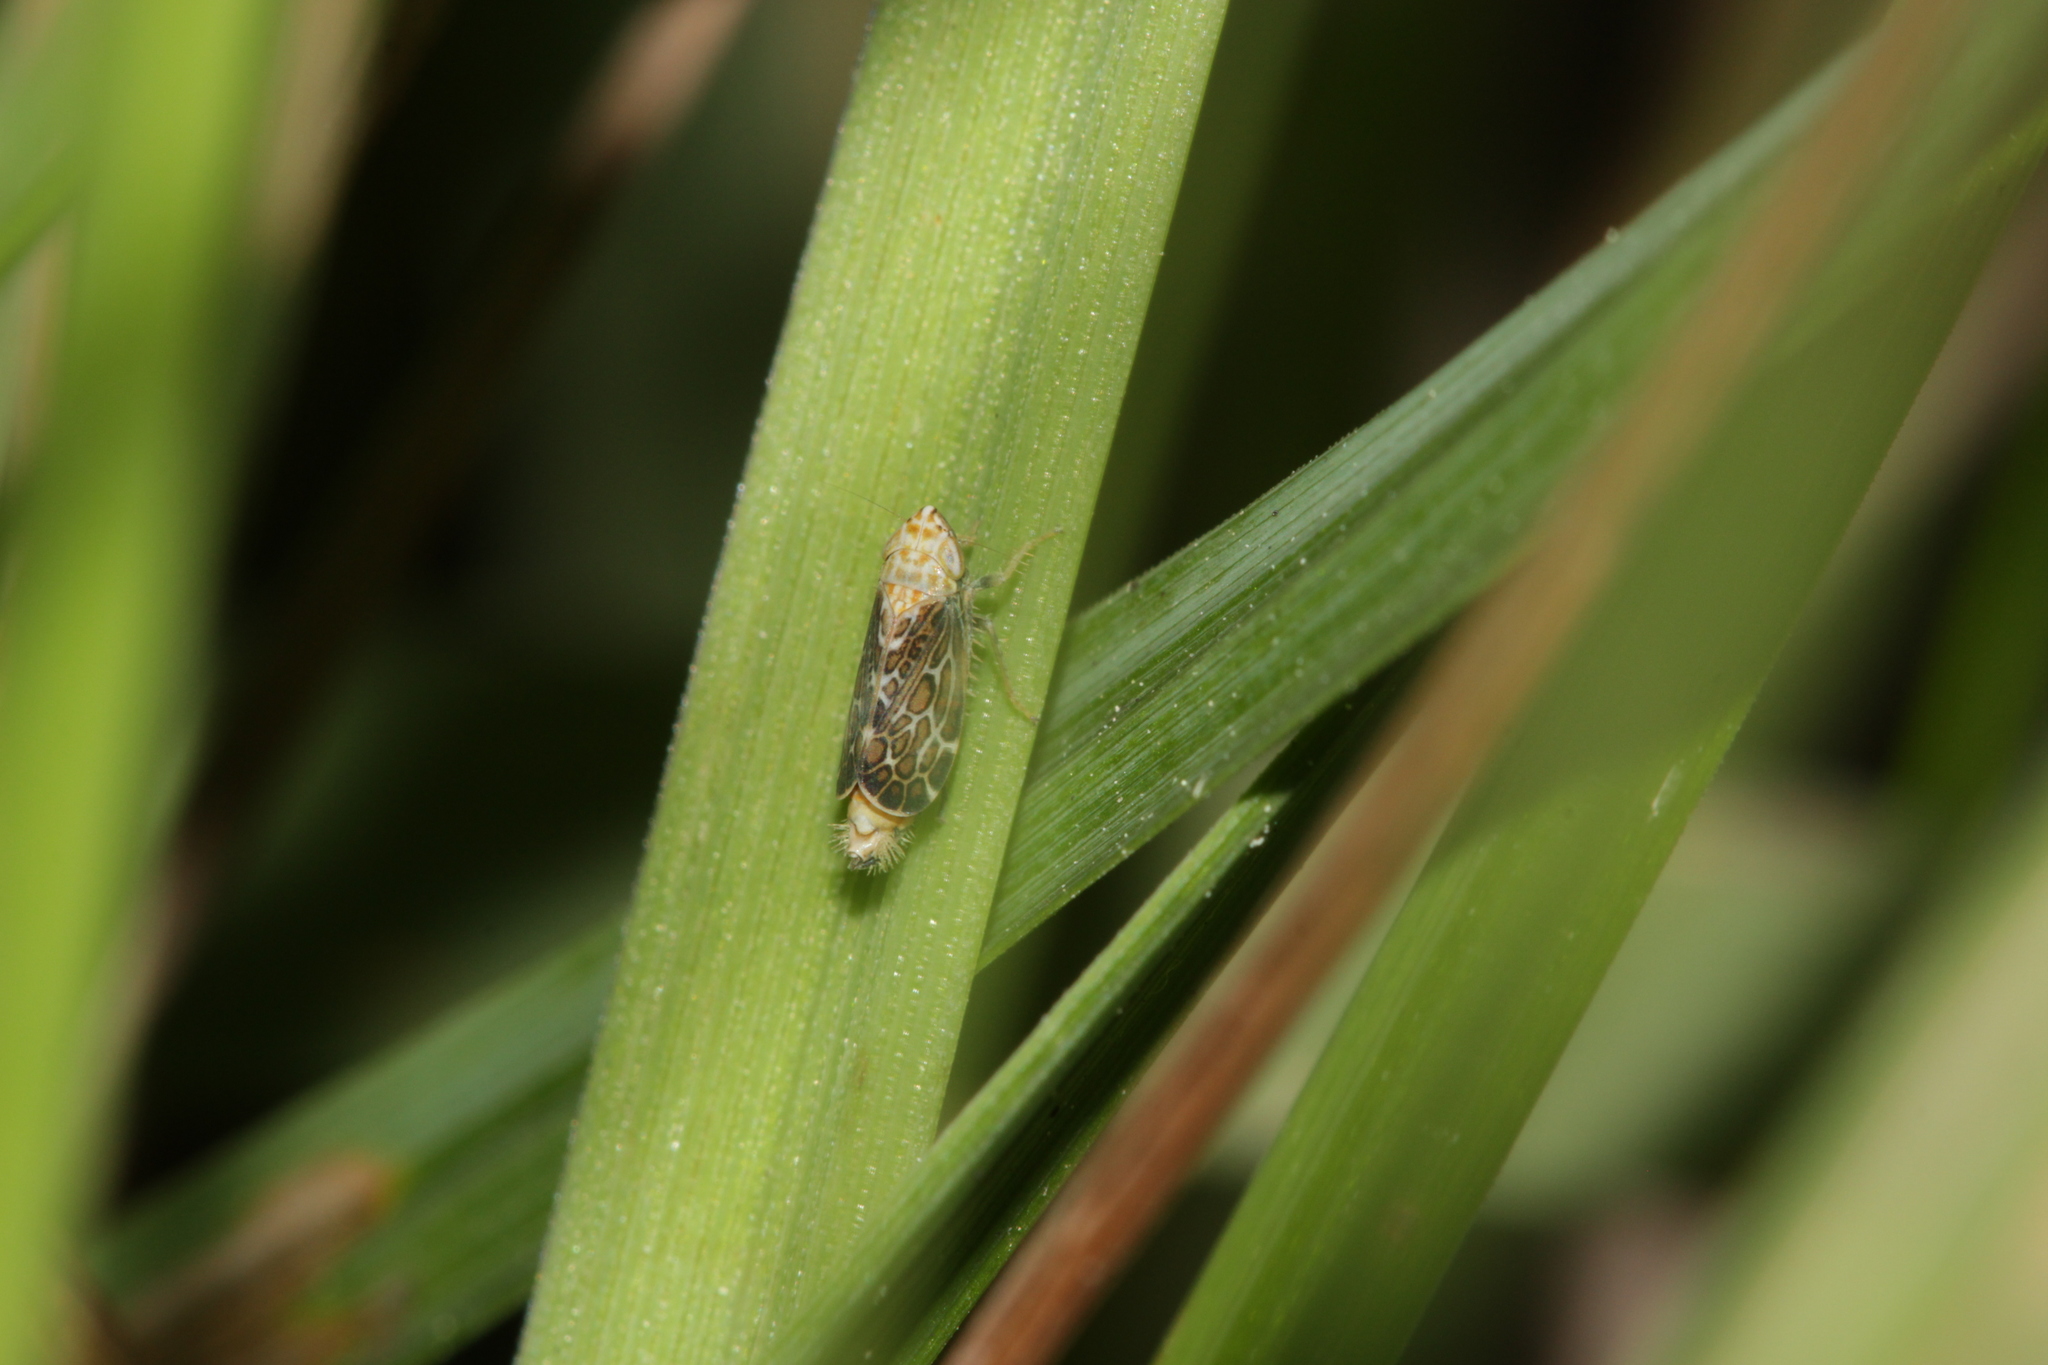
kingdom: Animalia
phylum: Arthropoda
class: Insecta
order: Hemiptera
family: Cicadellidae
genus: Errastunus
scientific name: Errastunus ocellaris
